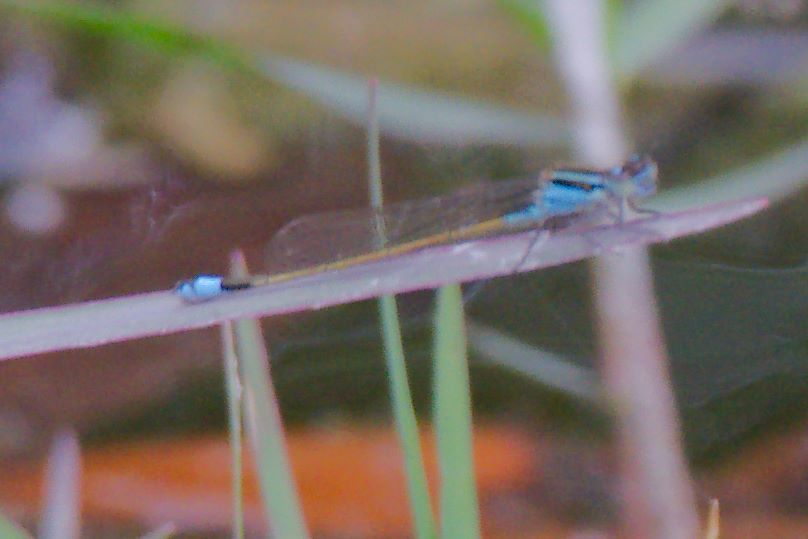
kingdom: Animalia
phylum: Arthropoda
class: Insecta
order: Odonata
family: Coenagrionidae
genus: Ischnura
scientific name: Ischnura ramburii
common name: Rambur's forktail
